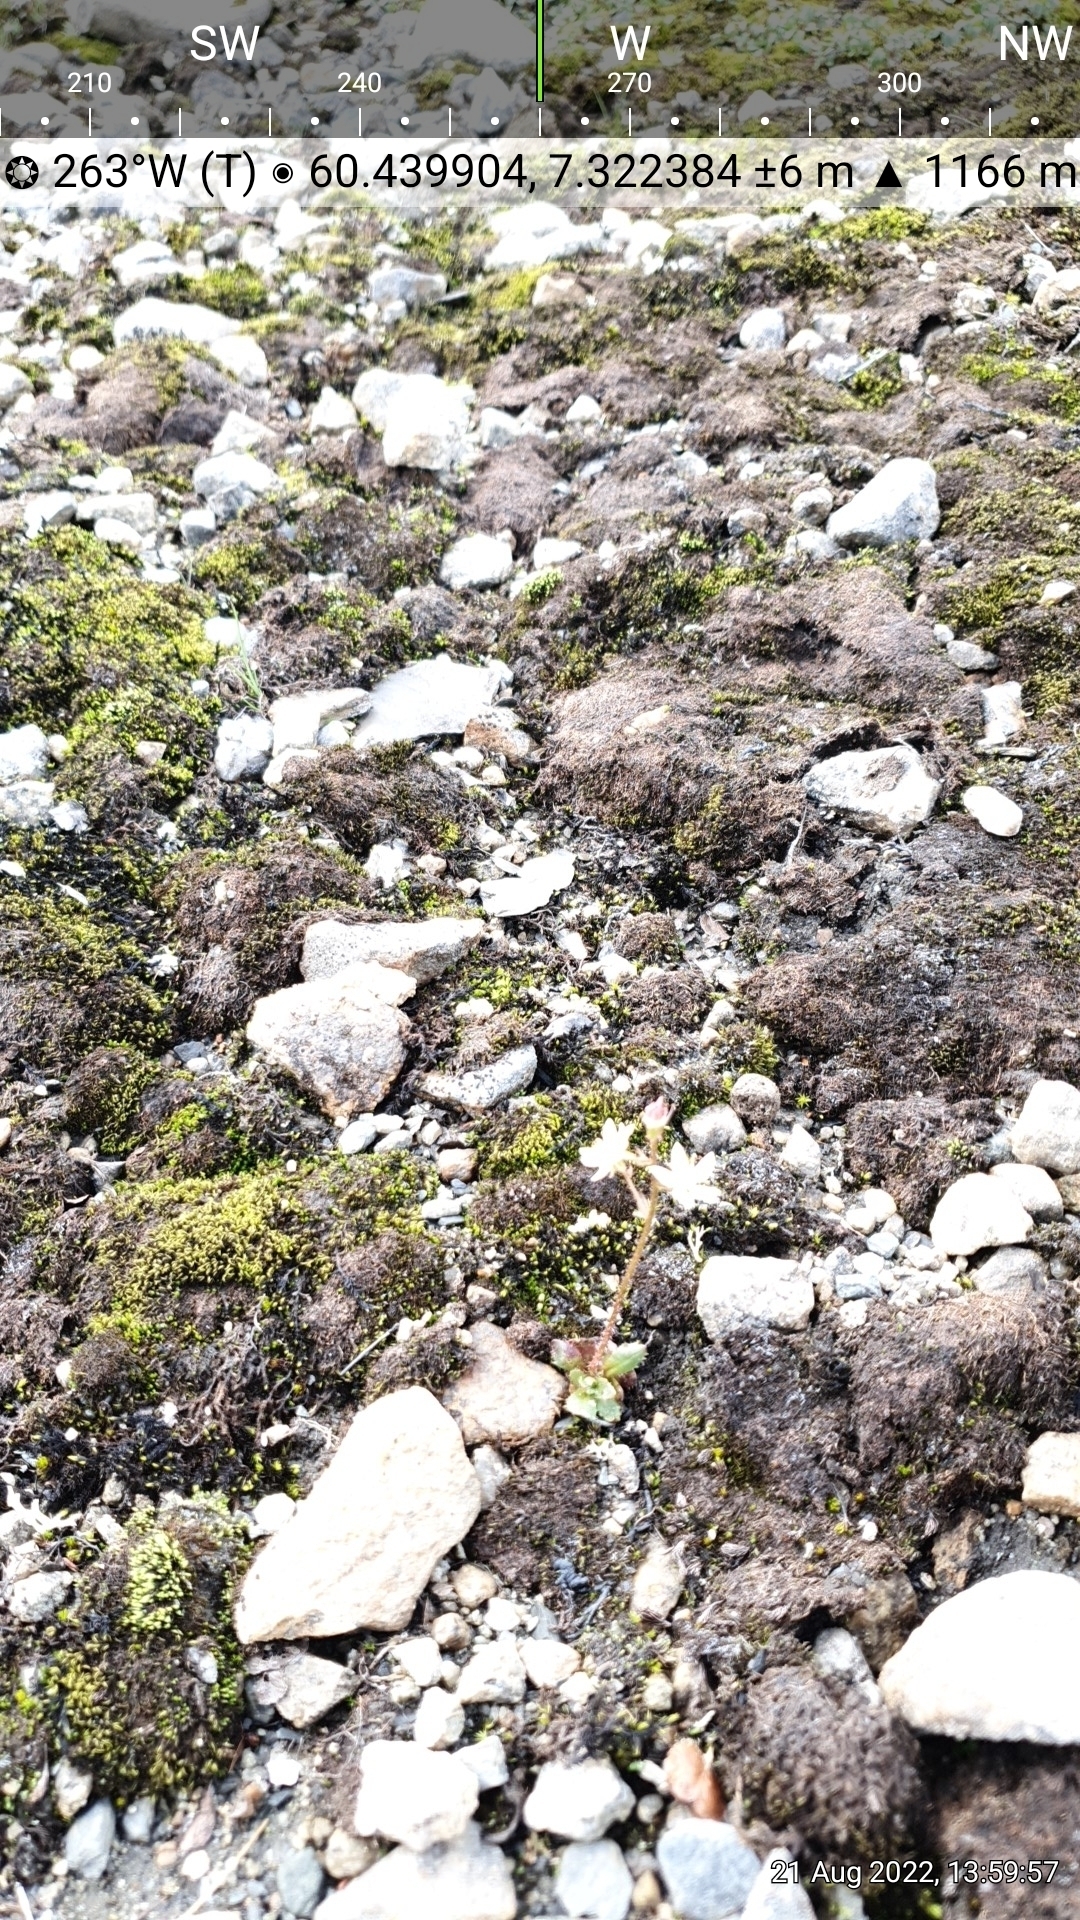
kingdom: Plantae
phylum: Tracheophyta
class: Magnoliopsida
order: Saxifragales
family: Saxifragaceae
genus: Micranthes
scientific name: Micranthes stellaris
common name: Starry saxifrage
